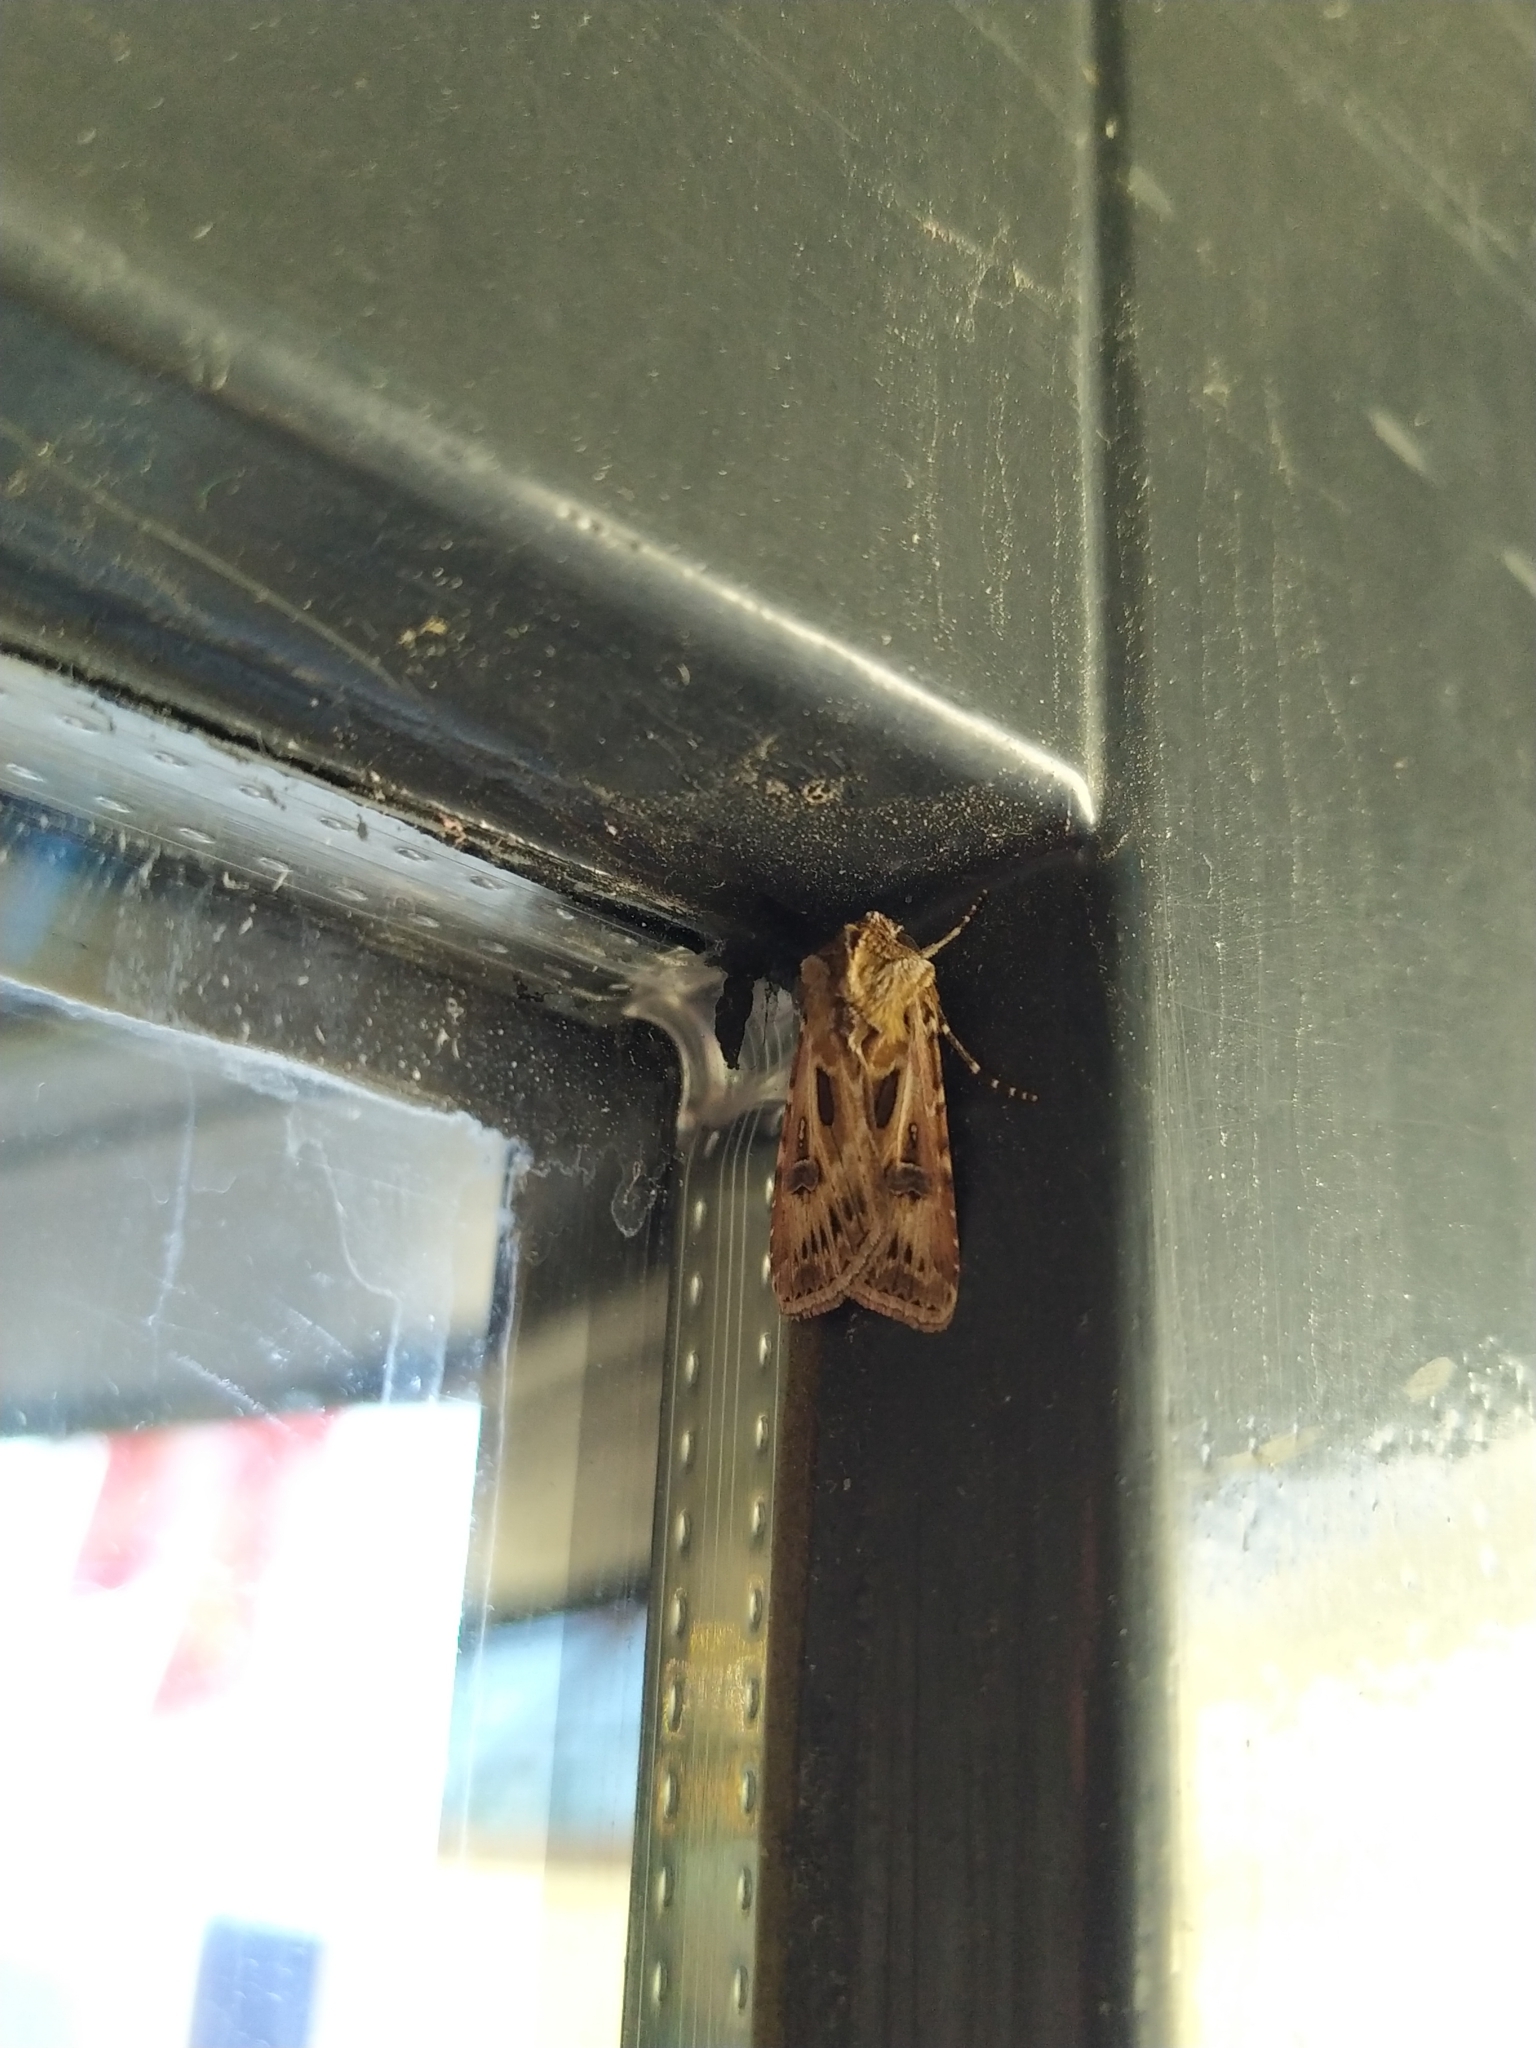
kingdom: Animalia
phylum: Arthropoda
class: Insecta
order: Lepidoptera
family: Noctuidae
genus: Agrotis
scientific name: Agrotis vestigialis
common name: Archer's dart
